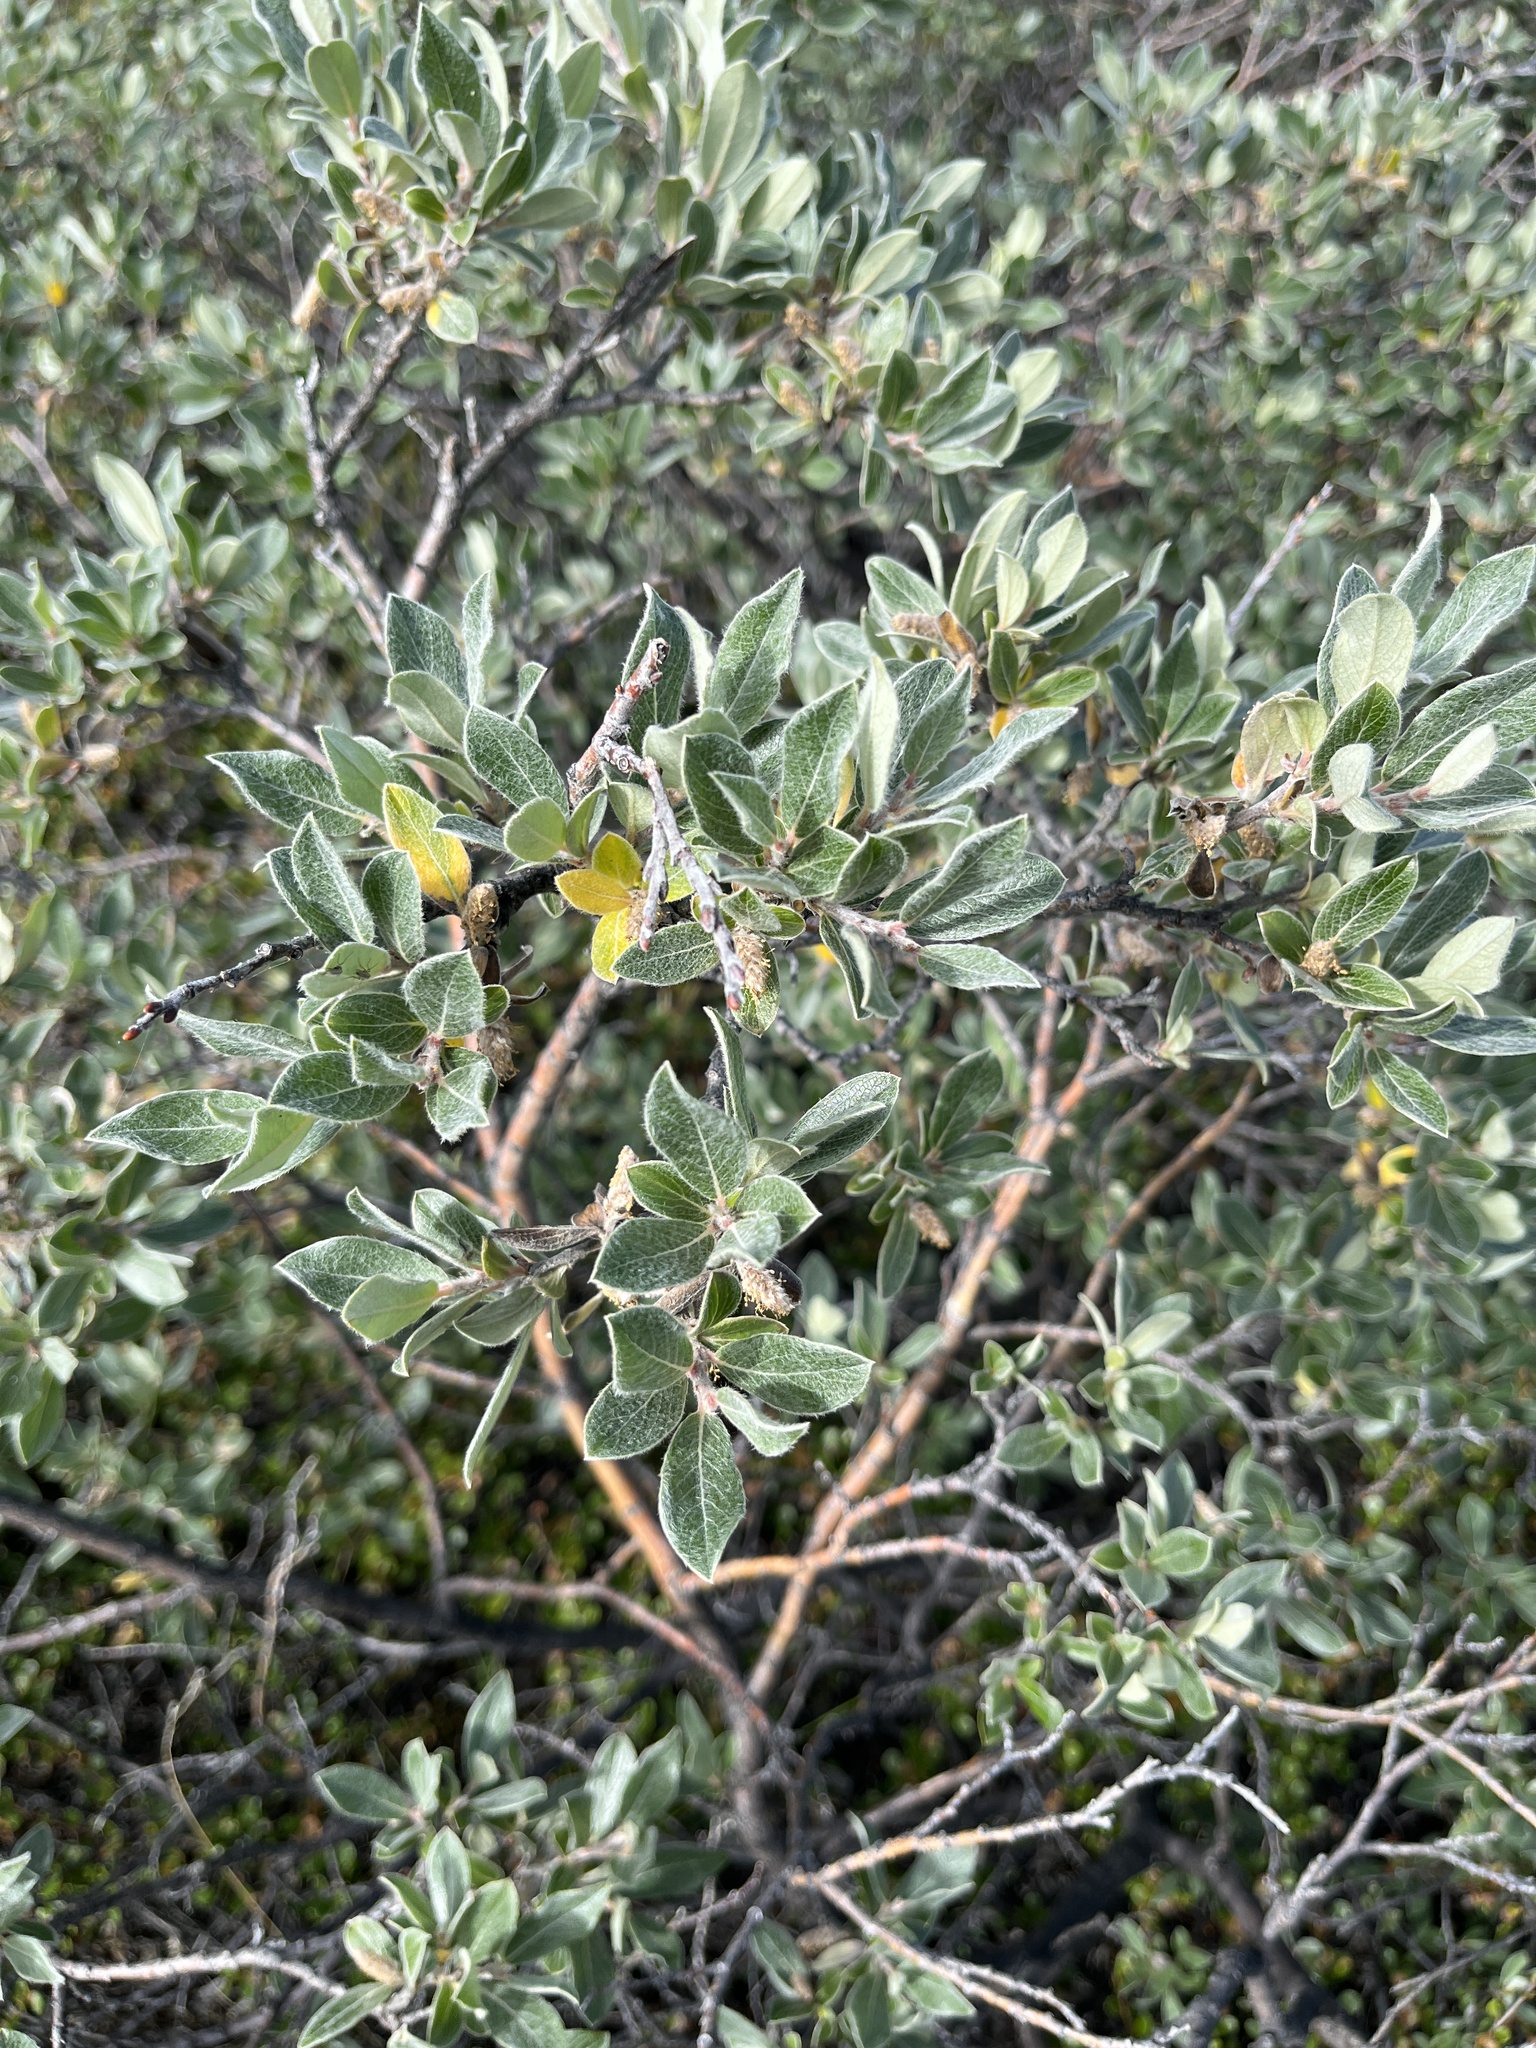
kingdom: Plantae
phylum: Tracheophyta
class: Magnoliopsida
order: Malpighiales
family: Salicaceae
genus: Salix
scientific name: Salix glauca
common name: Glaucous willow
